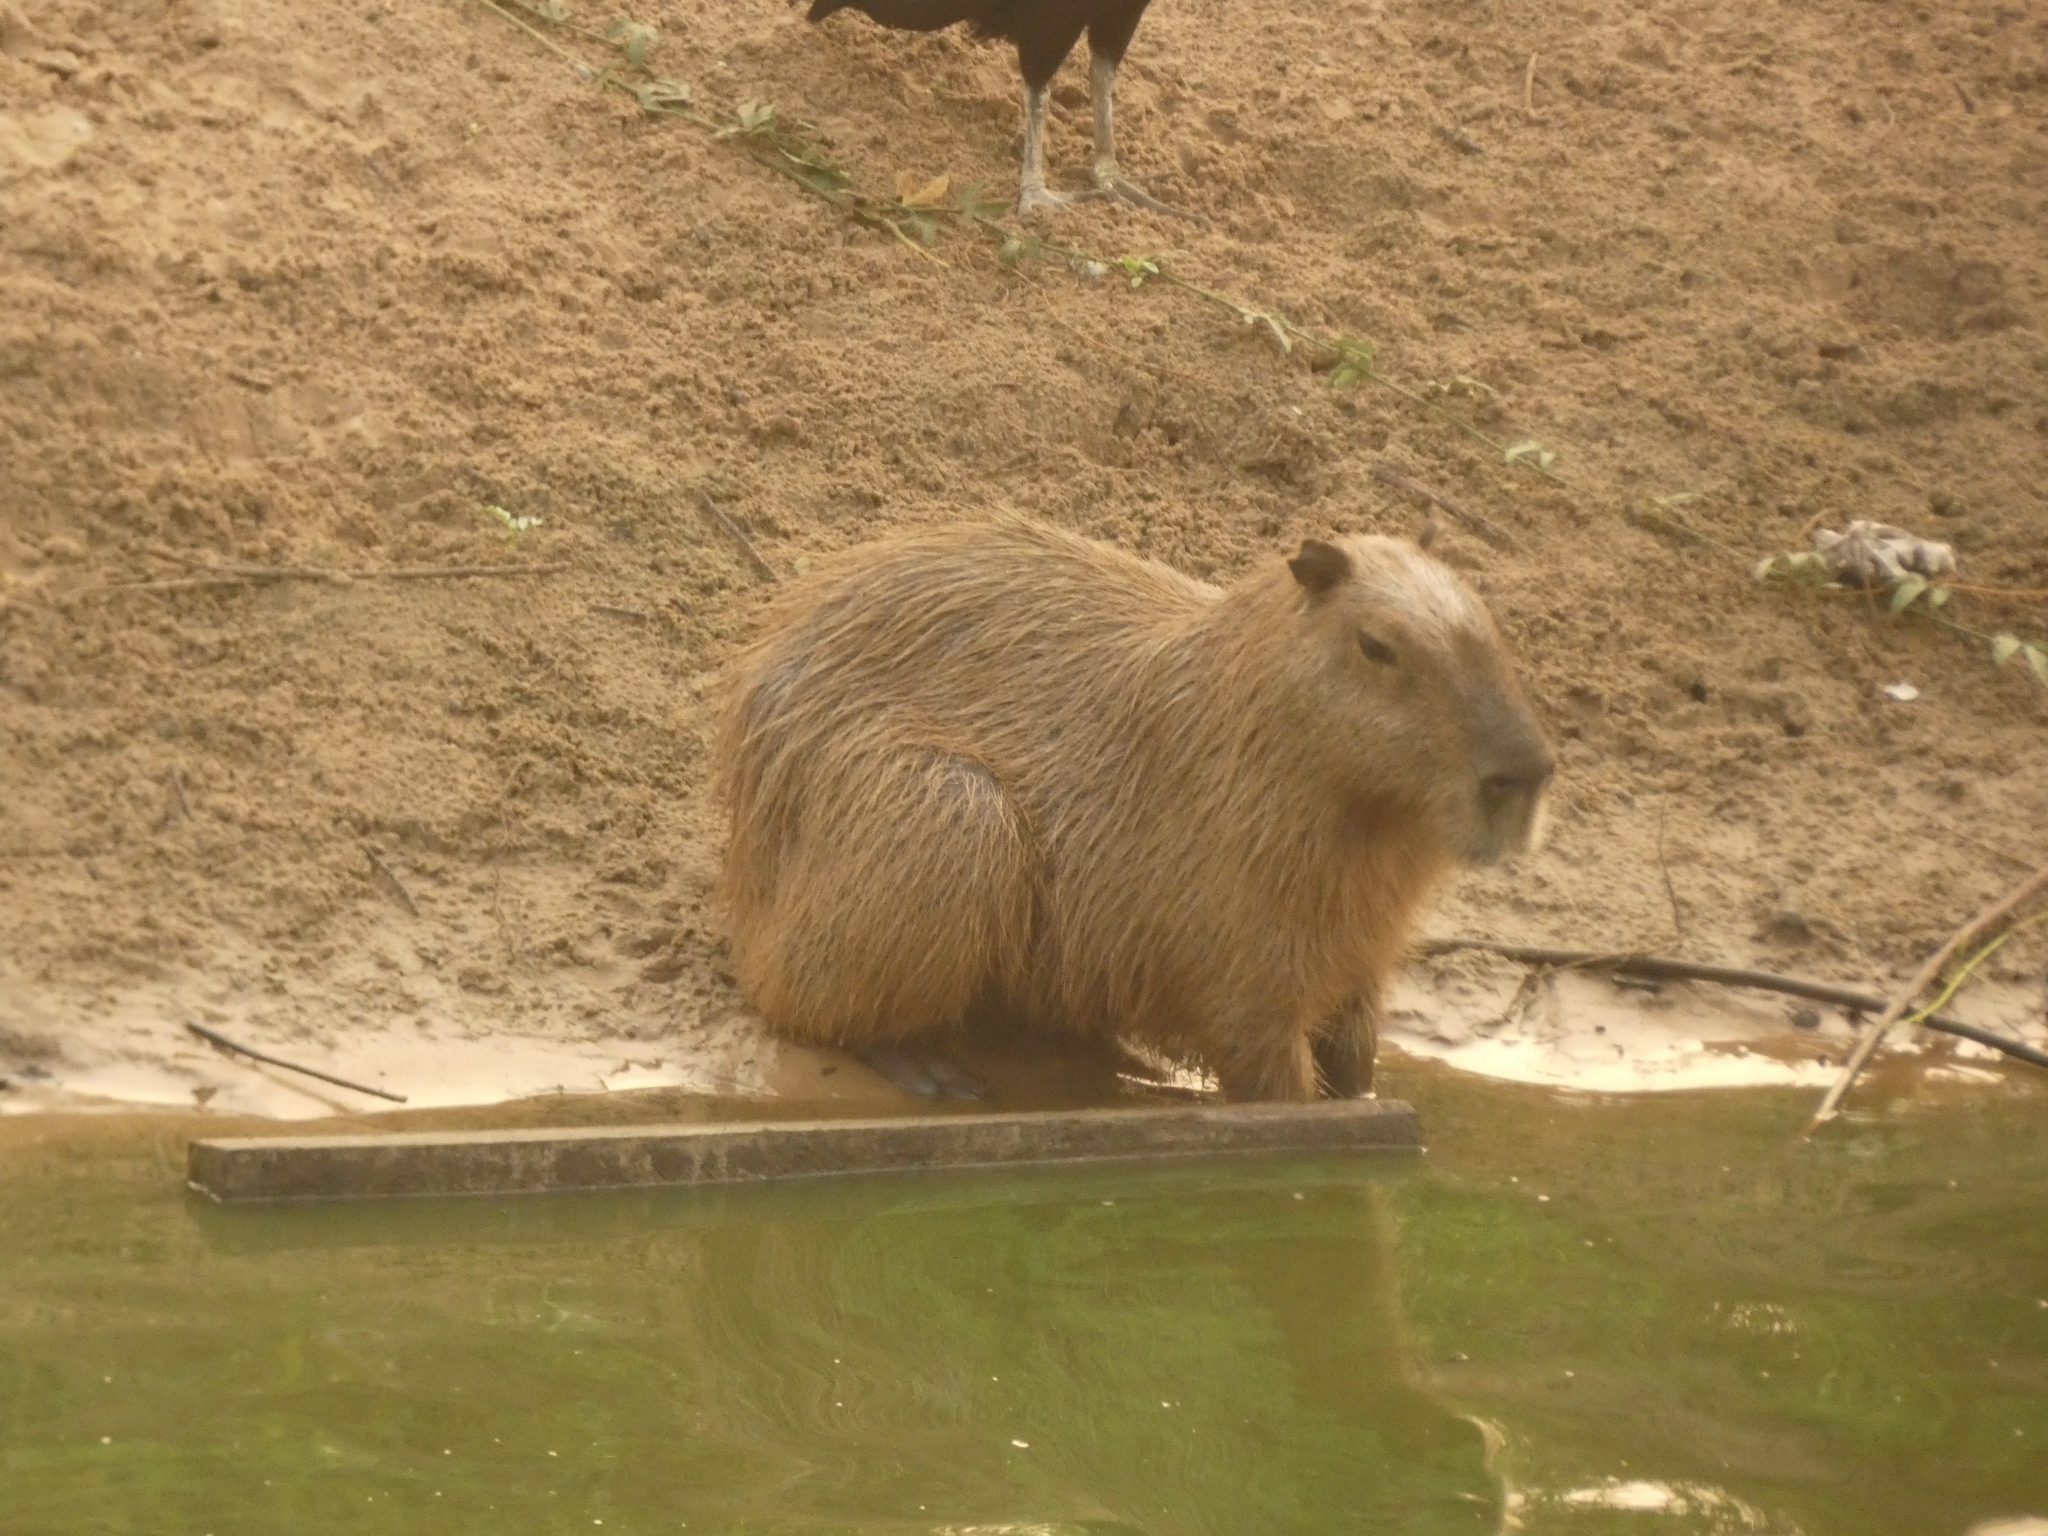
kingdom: Animalia
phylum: Chordata
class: Mammalia
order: Rodentia
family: Caviidae
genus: Hydrochoerus
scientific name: Hydrochoerus hydrochaeris
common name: Capybara
